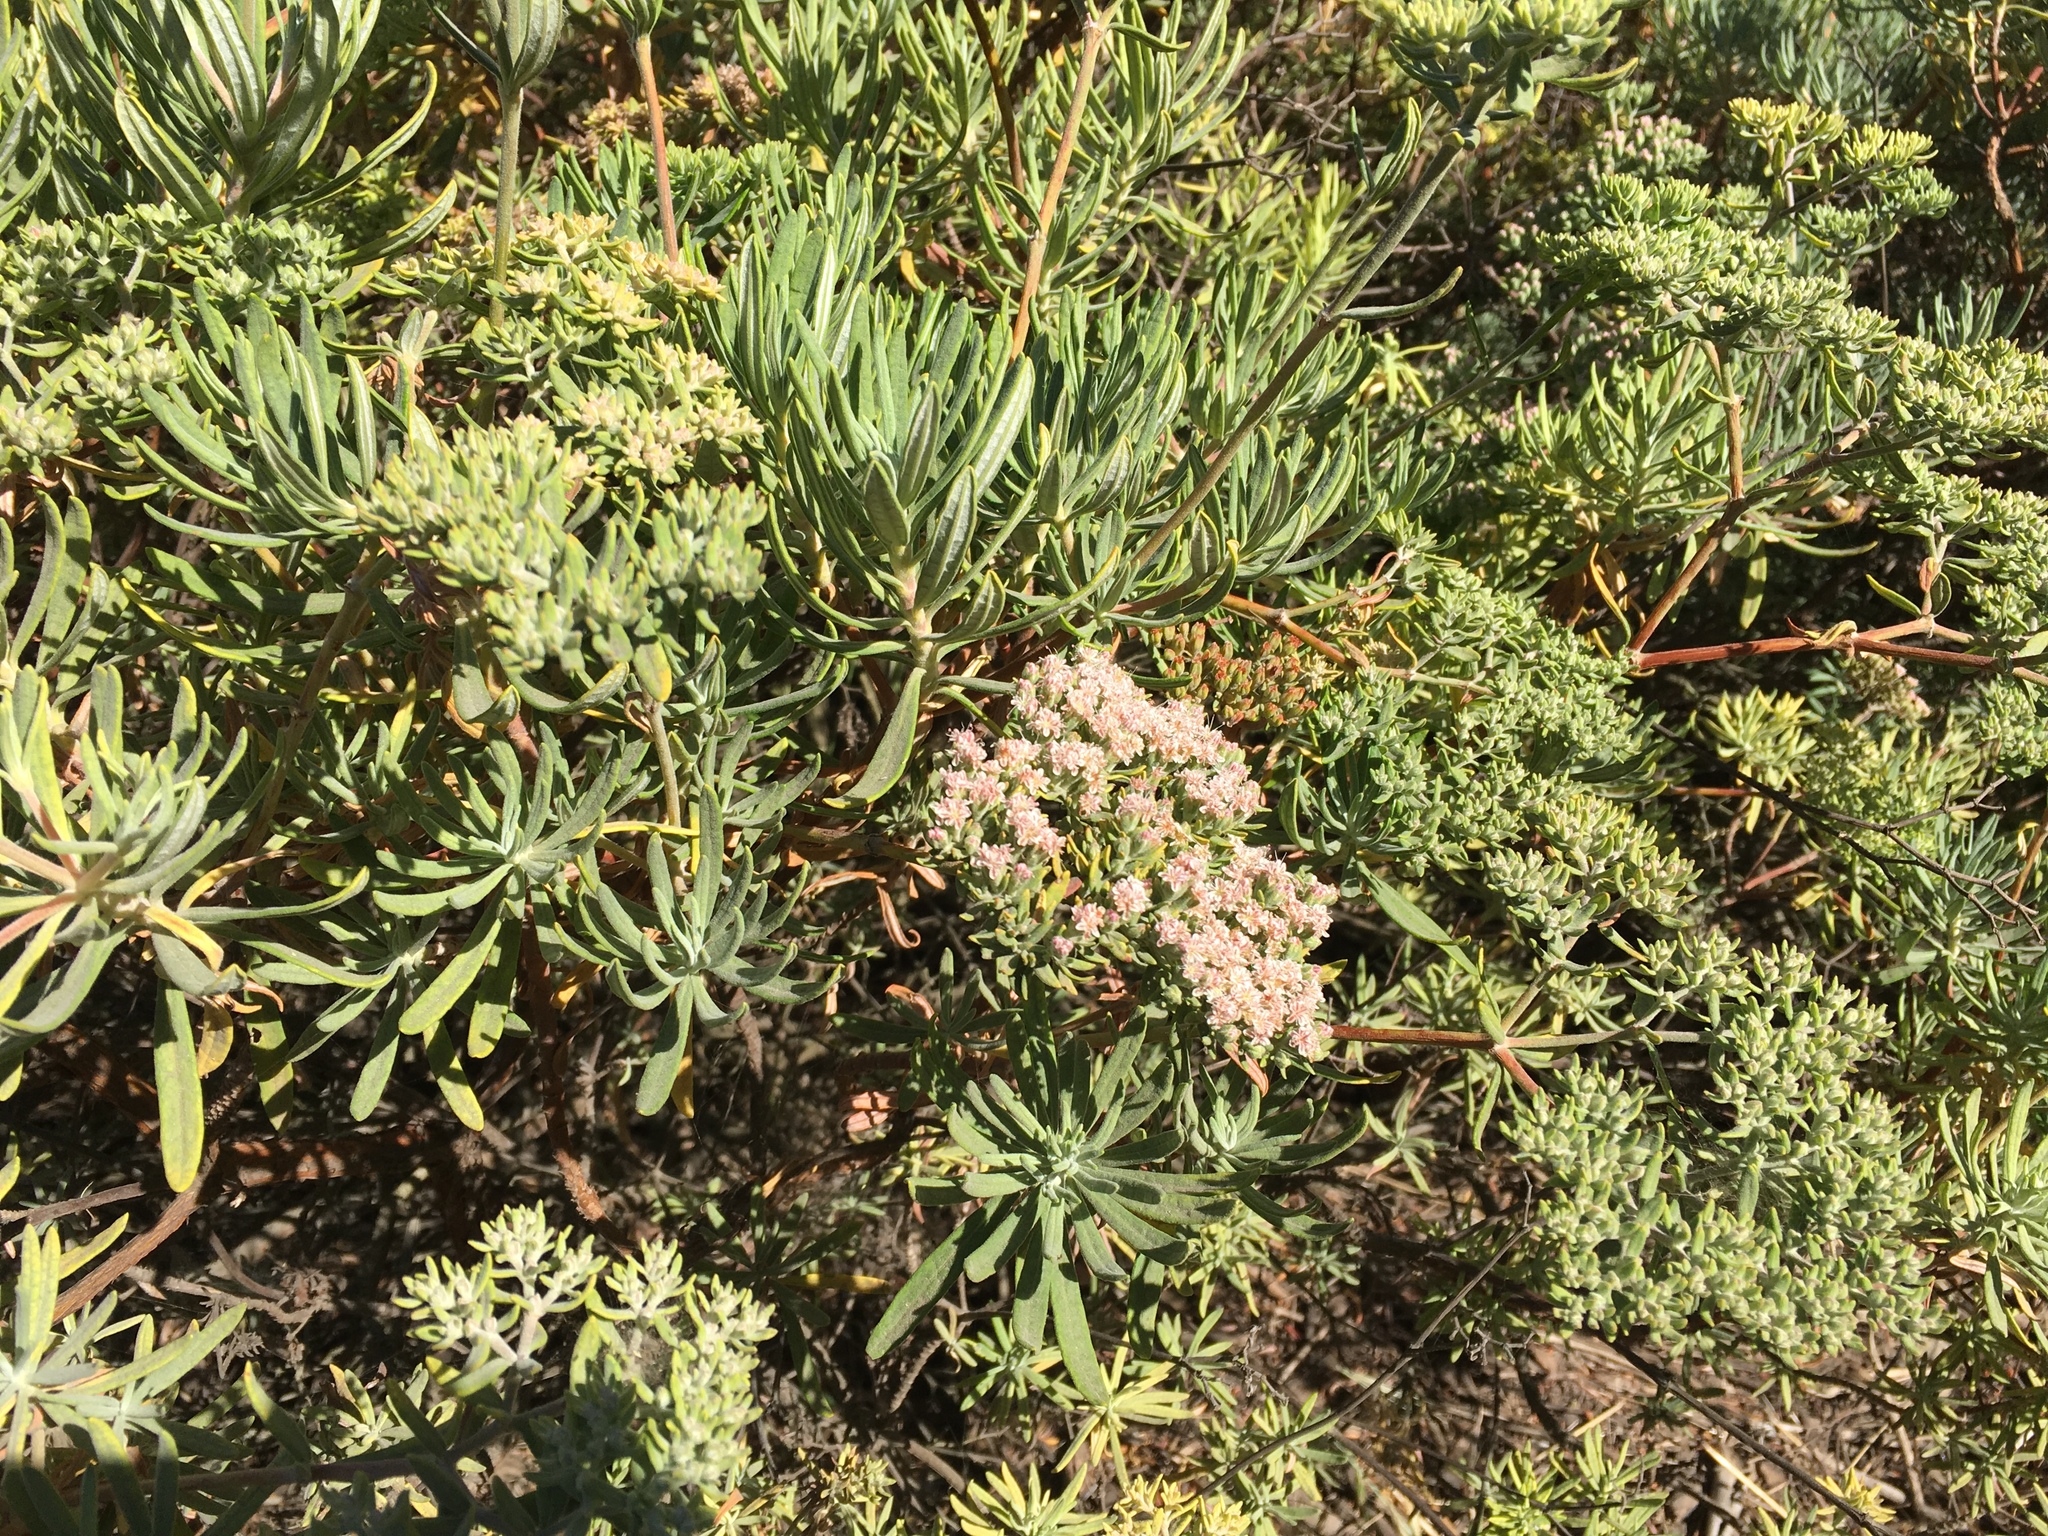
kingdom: Plantae
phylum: Tracheophyta
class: Magnoliopsida
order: Caryophyllales
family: Polygonaceae
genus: Eriogonum
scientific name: Eriogonum arborescens
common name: Island buckwheat
